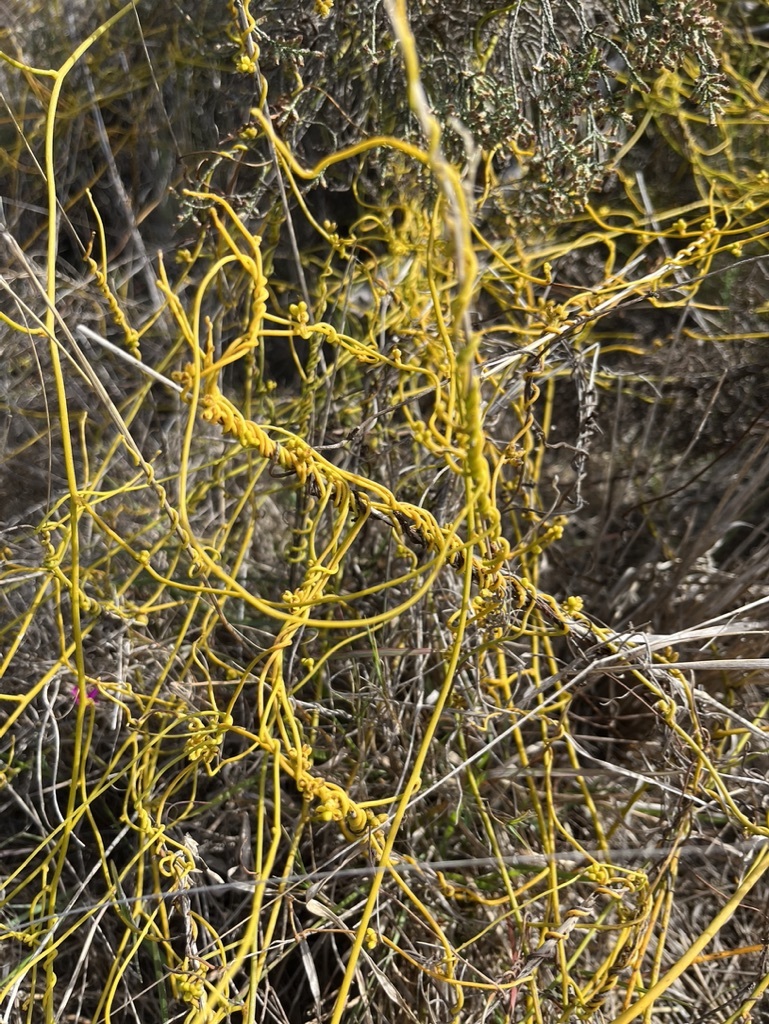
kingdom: Plantae
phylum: Tracheophyta
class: Magnoliopsida
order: Laurales
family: Lauraceae
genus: Cassytha
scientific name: Cassytha ciliolata
